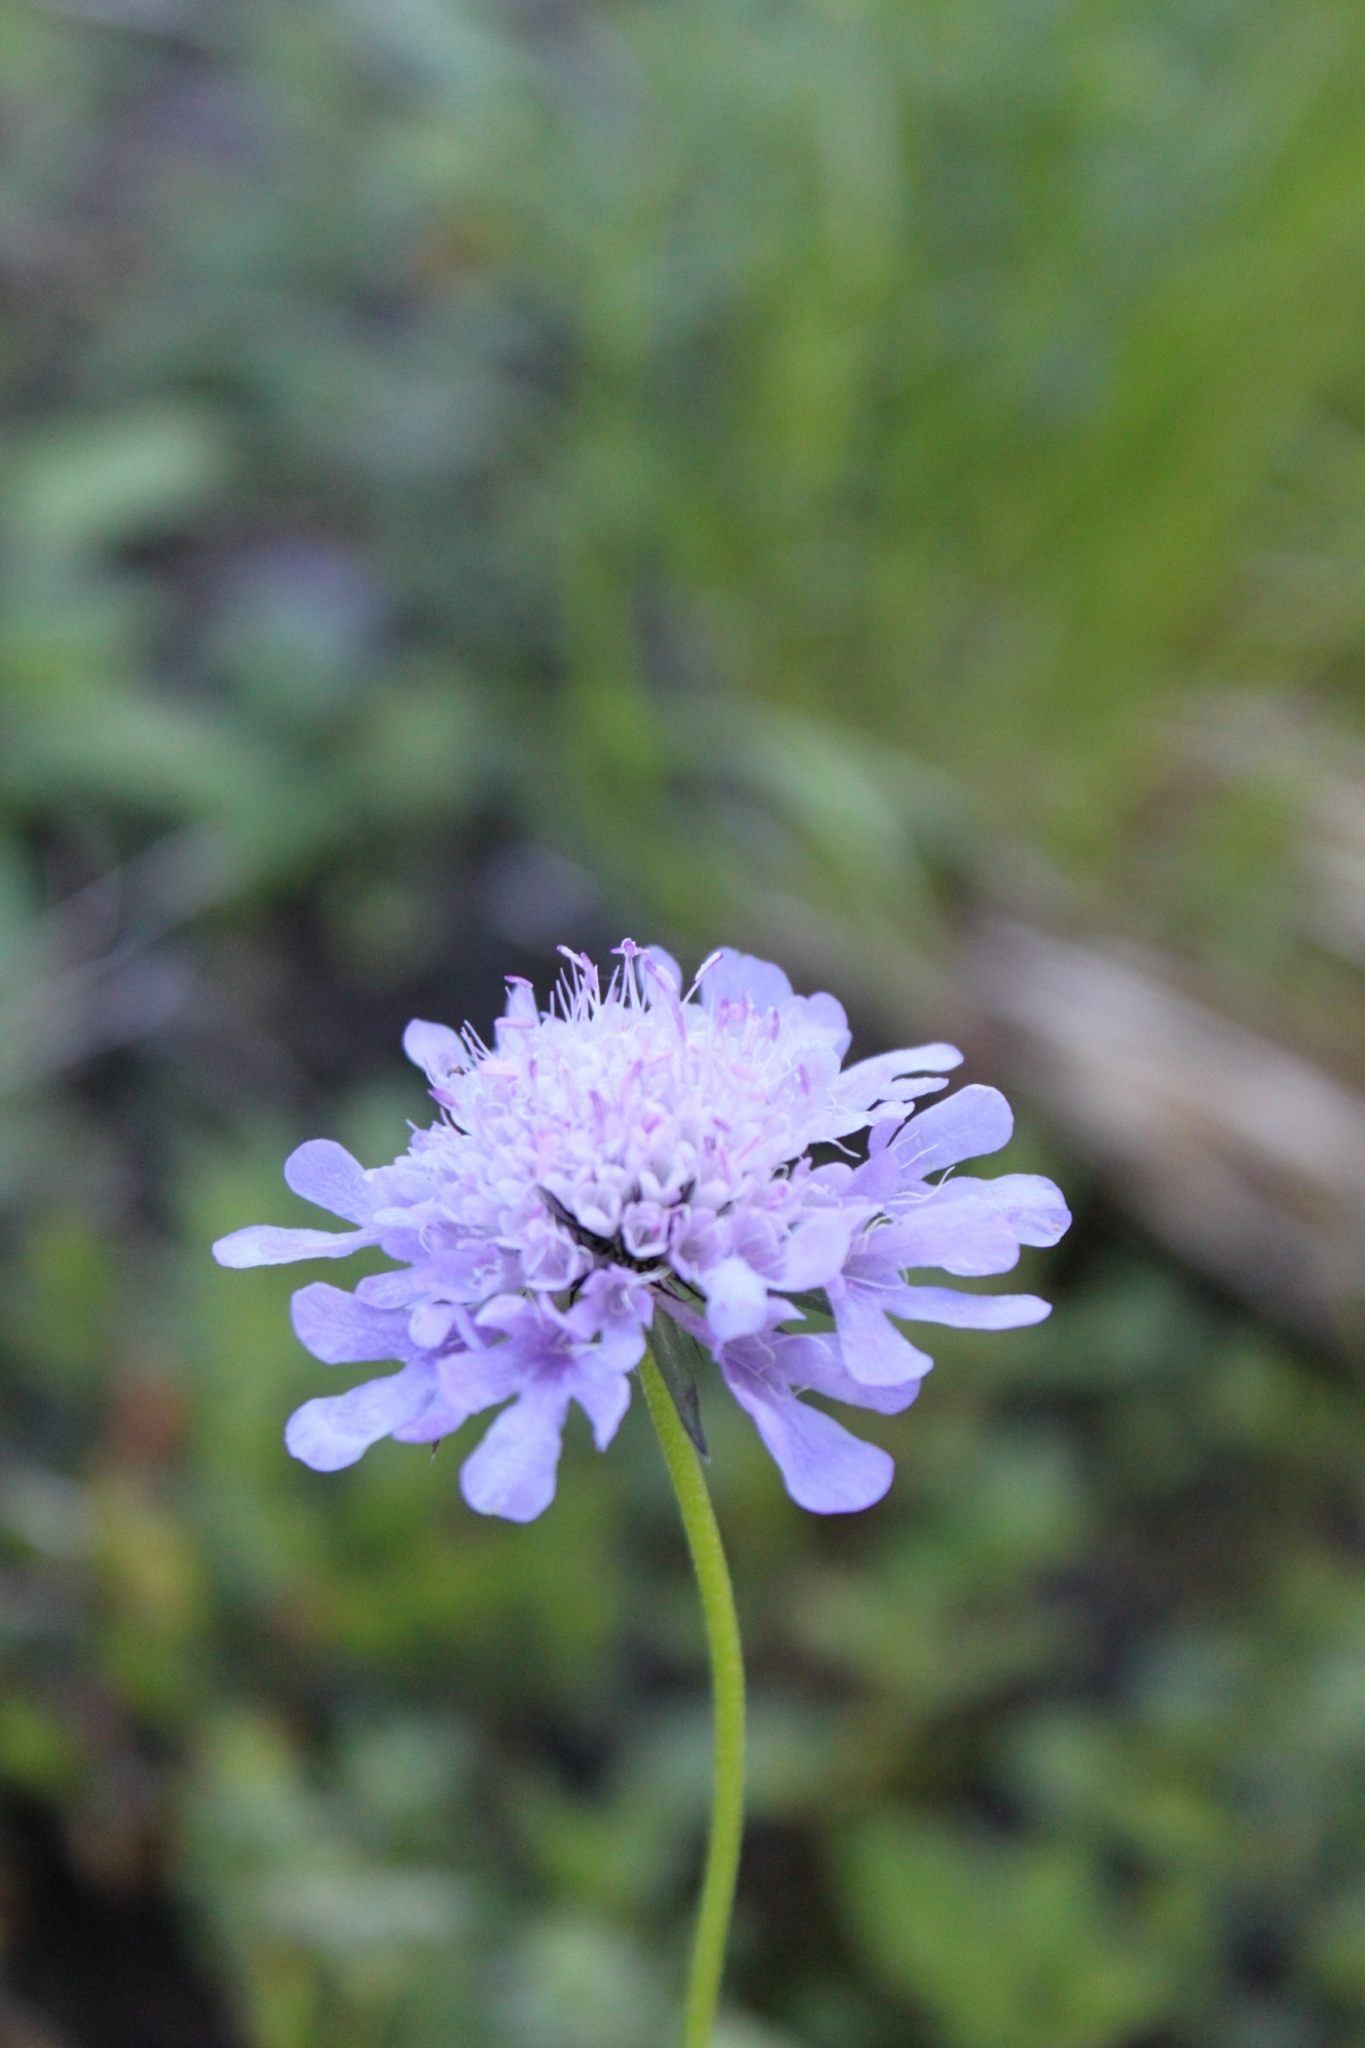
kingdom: Plantae
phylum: Tracheophyta
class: Magnoliopsida
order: Dipsacales
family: Caprifoliaceae
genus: Scabiosa
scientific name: Scabiosa lucida
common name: Shining scabious
